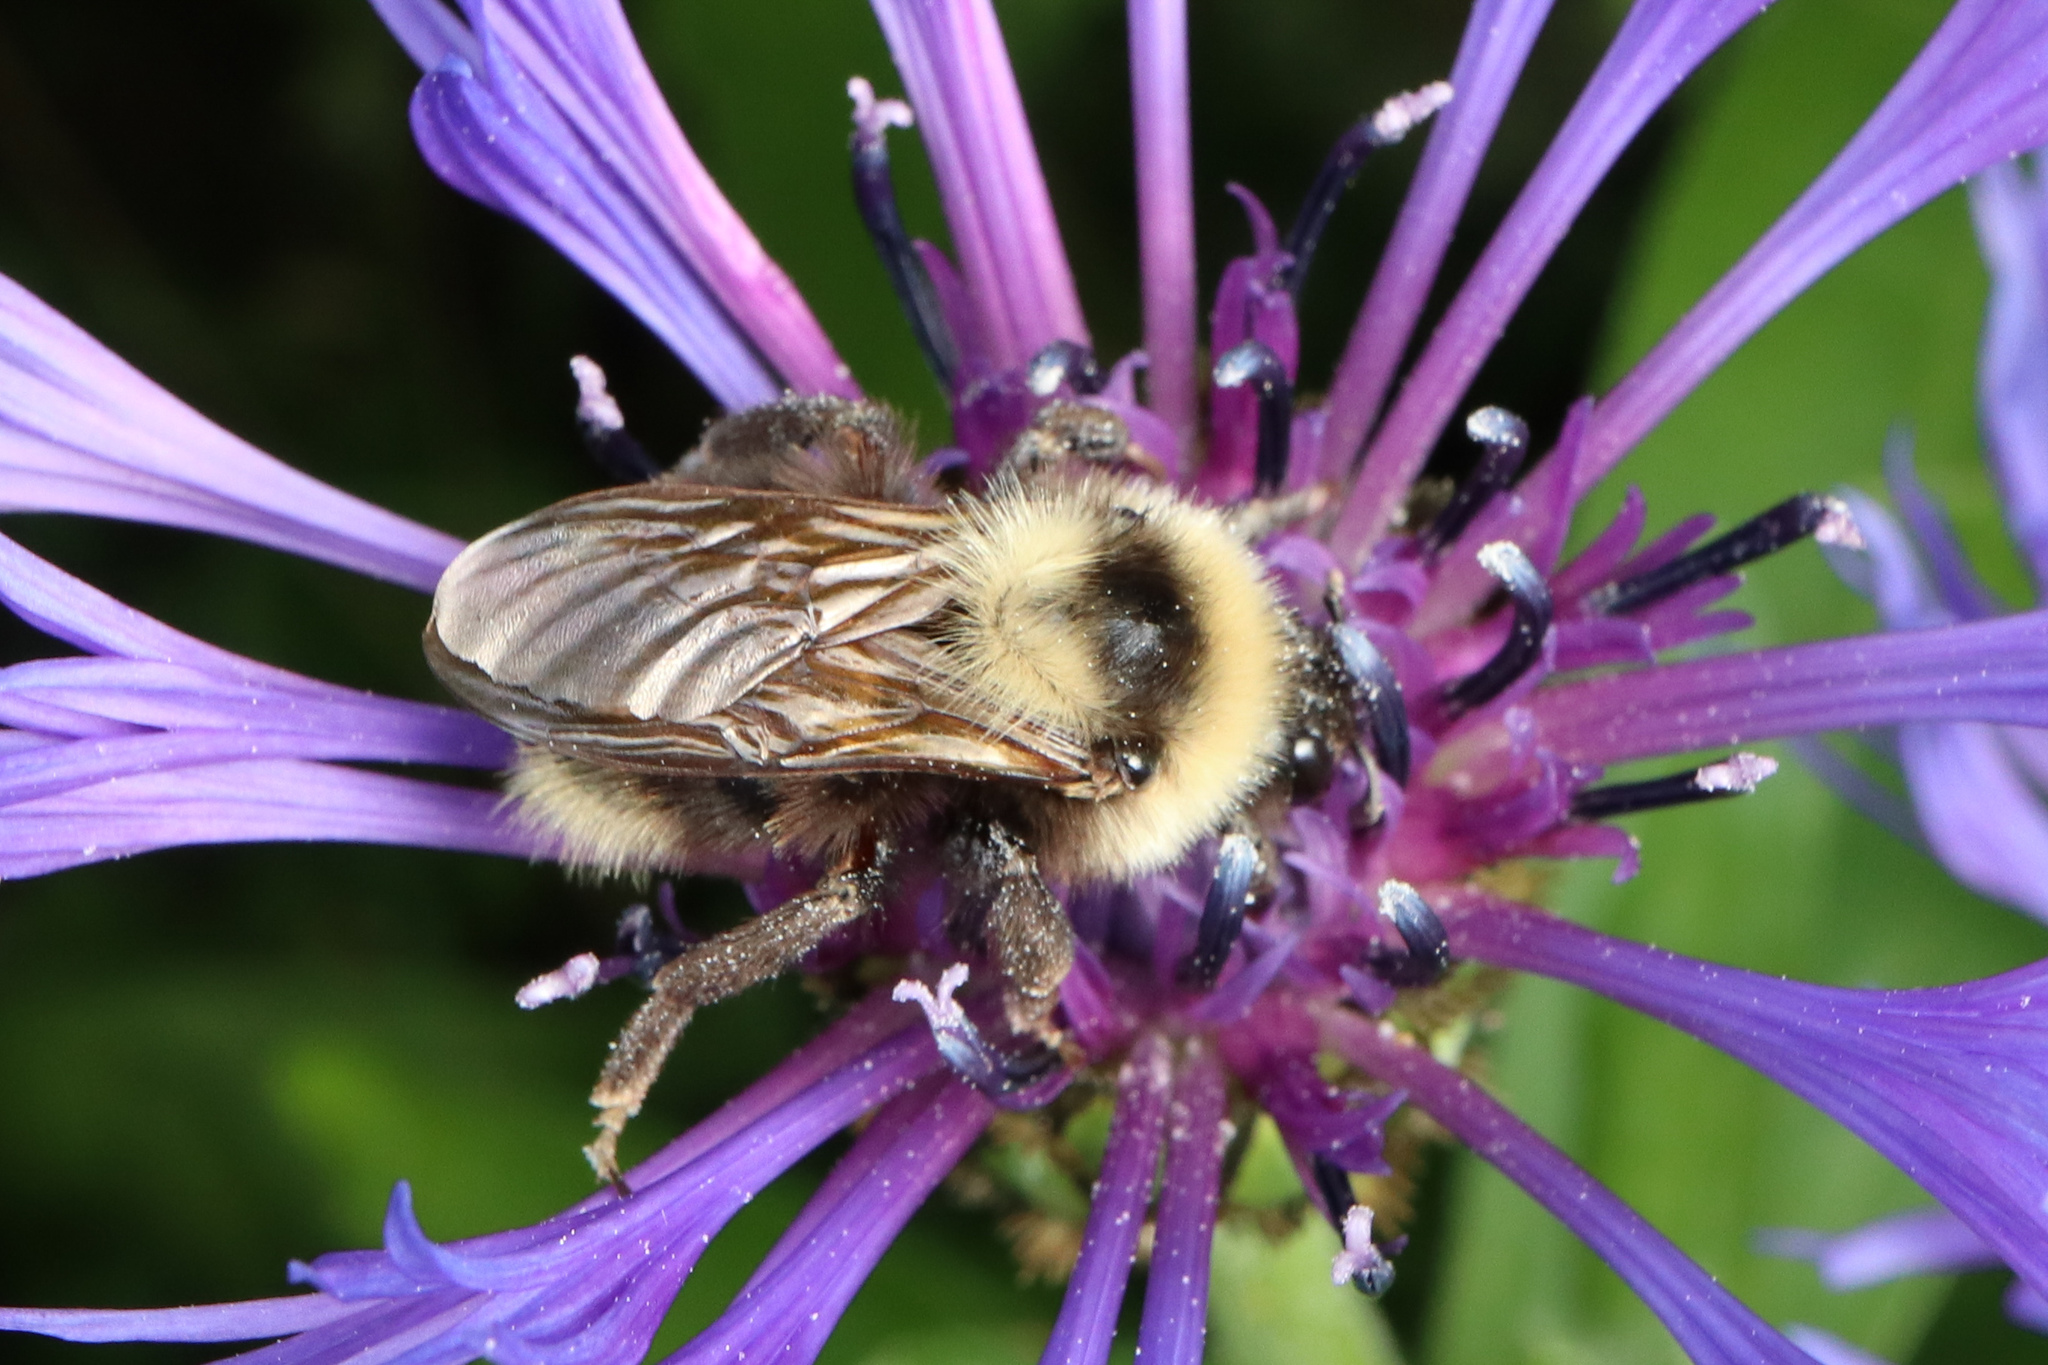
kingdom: Animalia
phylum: Arthropoda
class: Insecta
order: Hymenoptera
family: Apidae
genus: Bombus
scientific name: Bombus campestris
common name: Field cuckoo-bee
